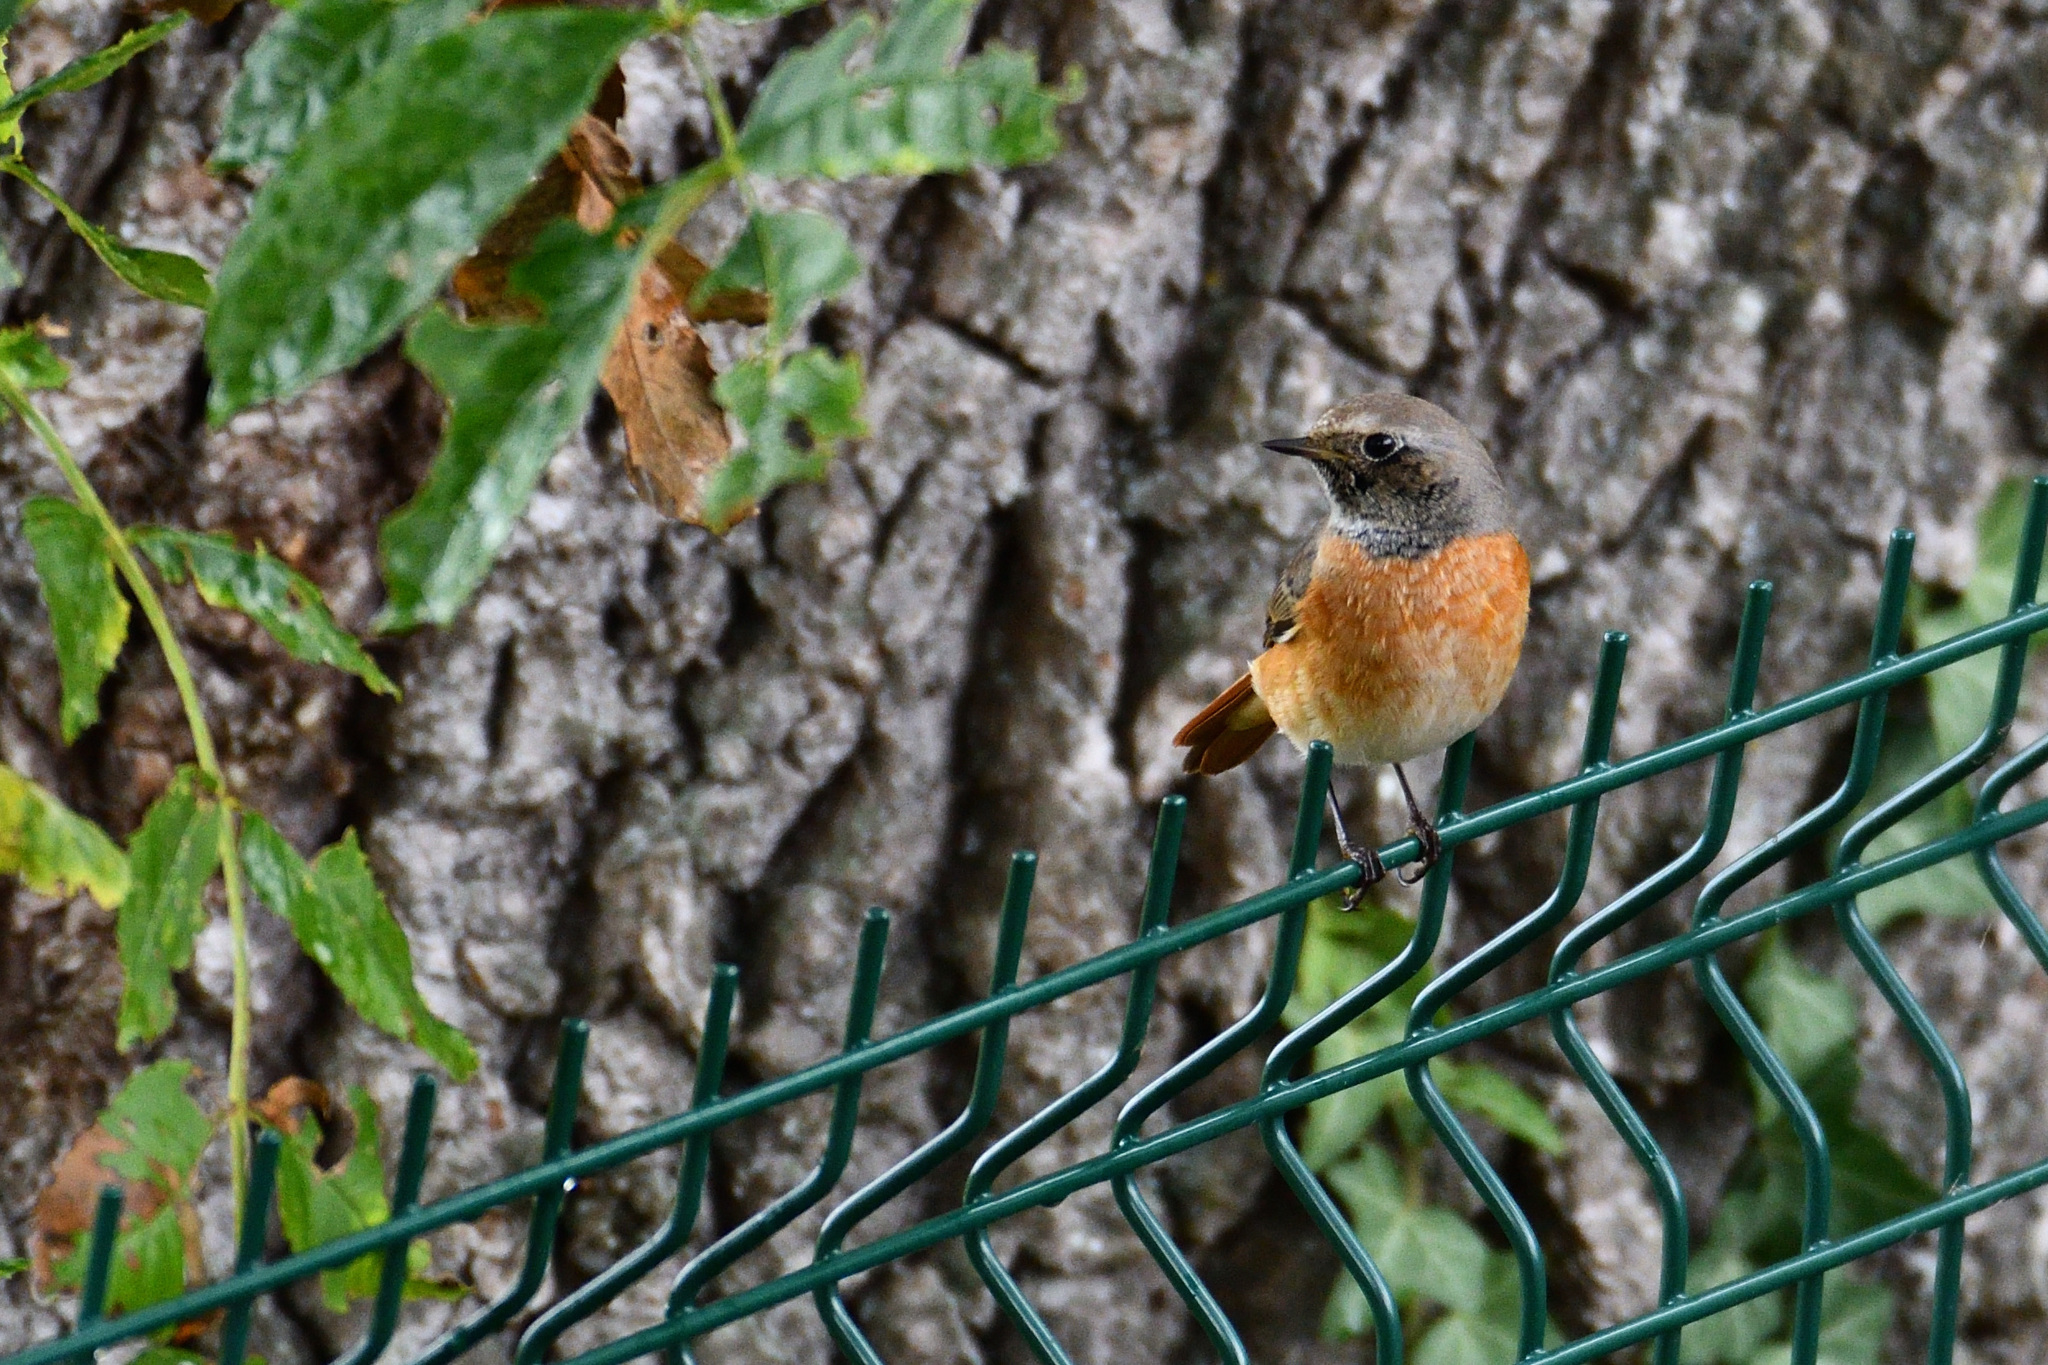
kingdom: Animalia
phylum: Chordata
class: Aves
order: Passeriformes
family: Muscicapidae
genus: Phoenicurus
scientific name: Phoenicurus phoenicurus
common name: Common redstart
